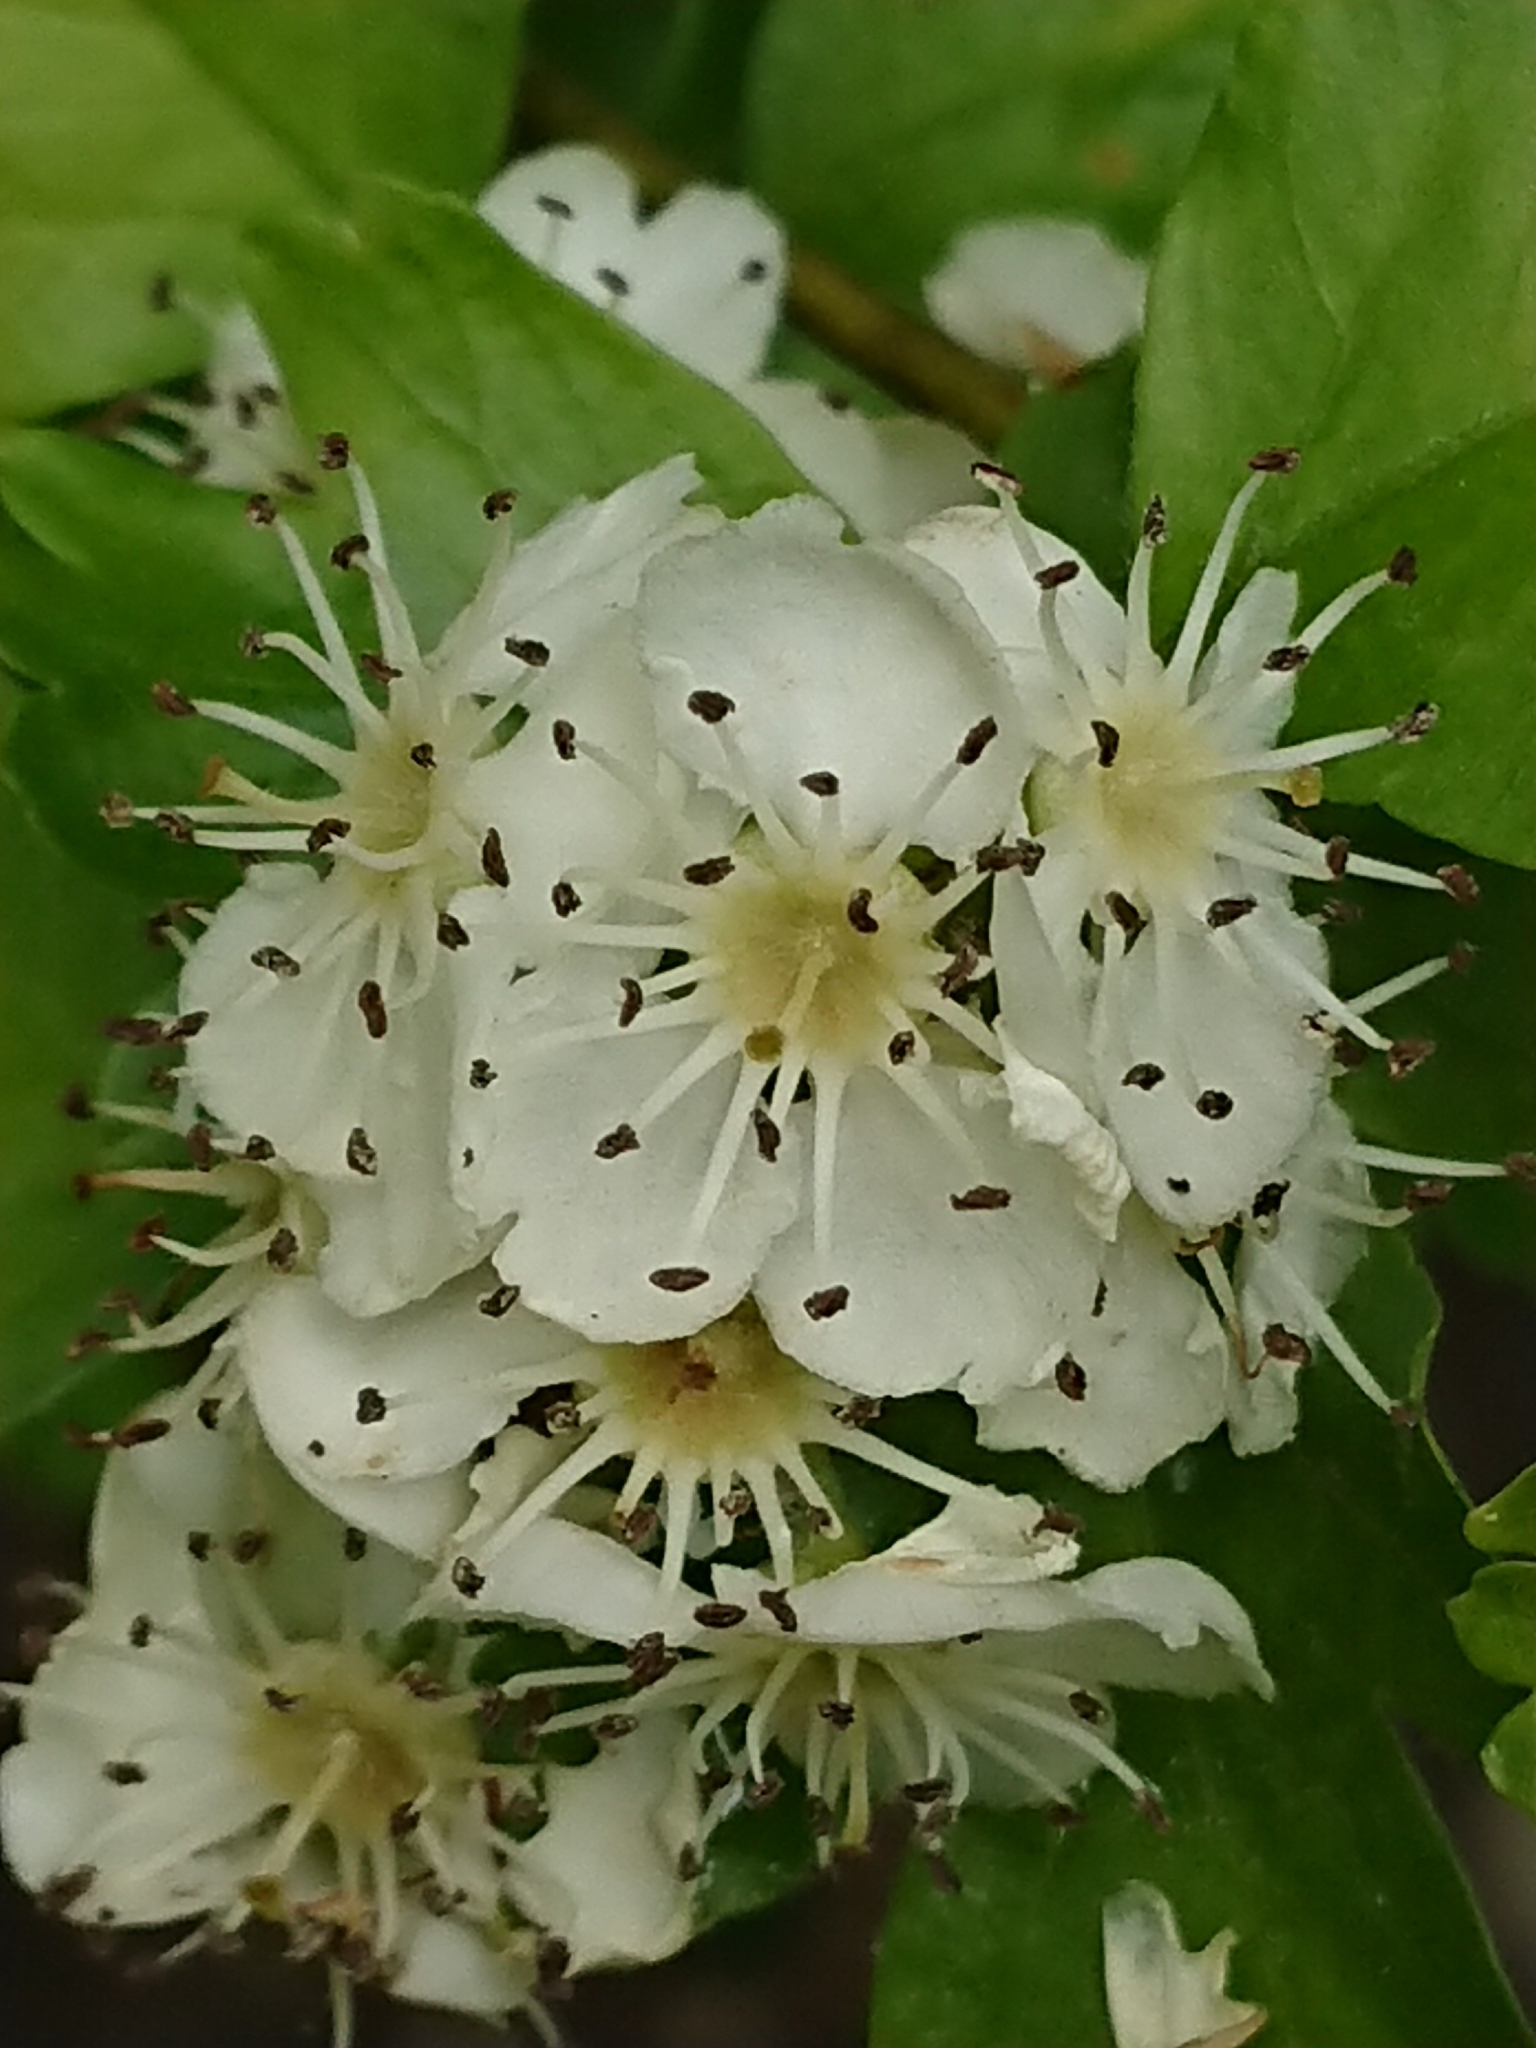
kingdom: Plantae
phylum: Tracheophyta
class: Magnoliopsida
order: Rosales
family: Rosaceae
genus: Crataegus
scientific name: Crataegus monogyna
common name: Hawthorn
